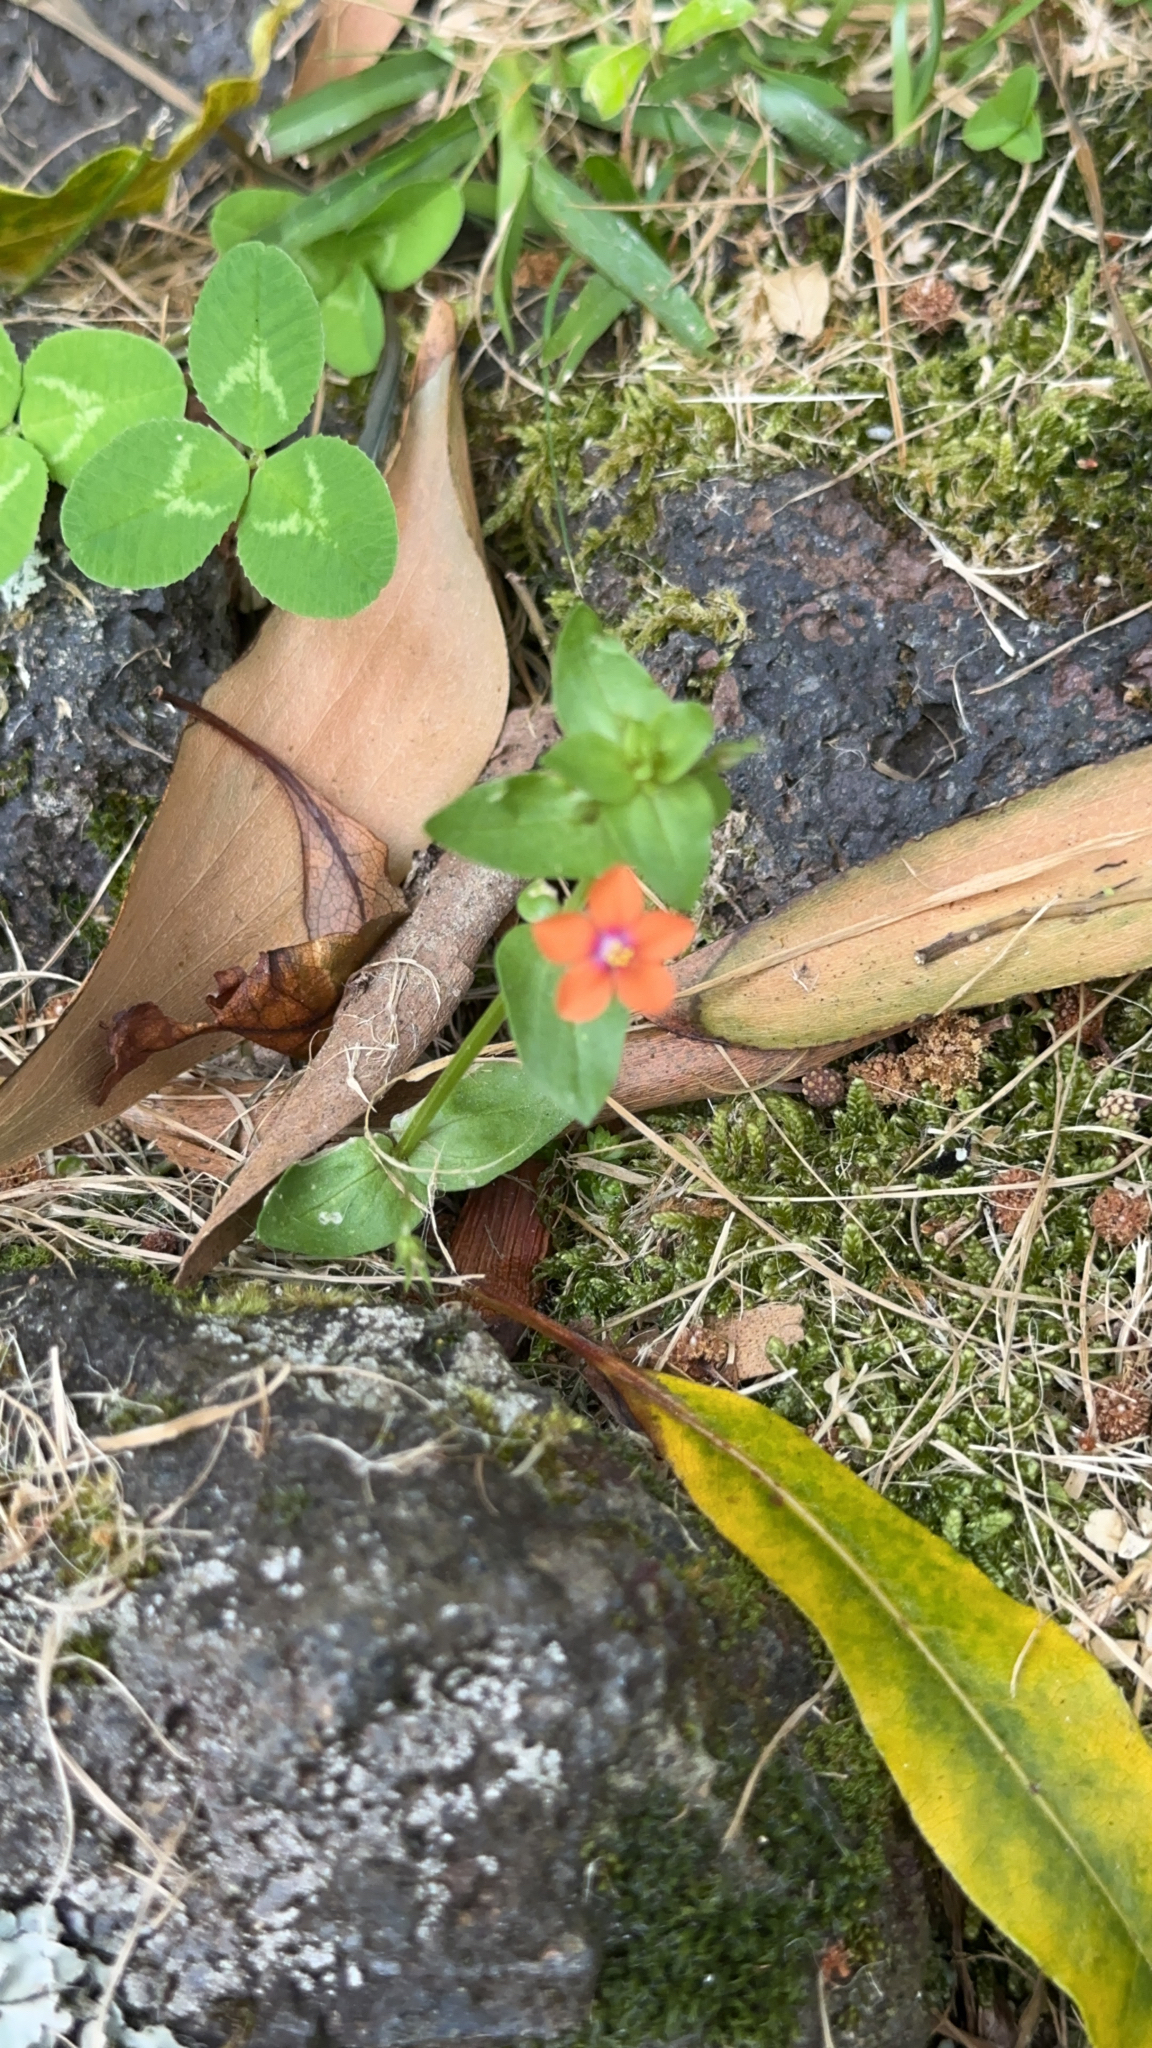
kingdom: Plantae
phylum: Tracheophyta
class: Magnoliopsida
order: Ericales
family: Primulaceae
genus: Lysimachia
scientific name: Lysimachia arvensis
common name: Scarlet pimpernel
